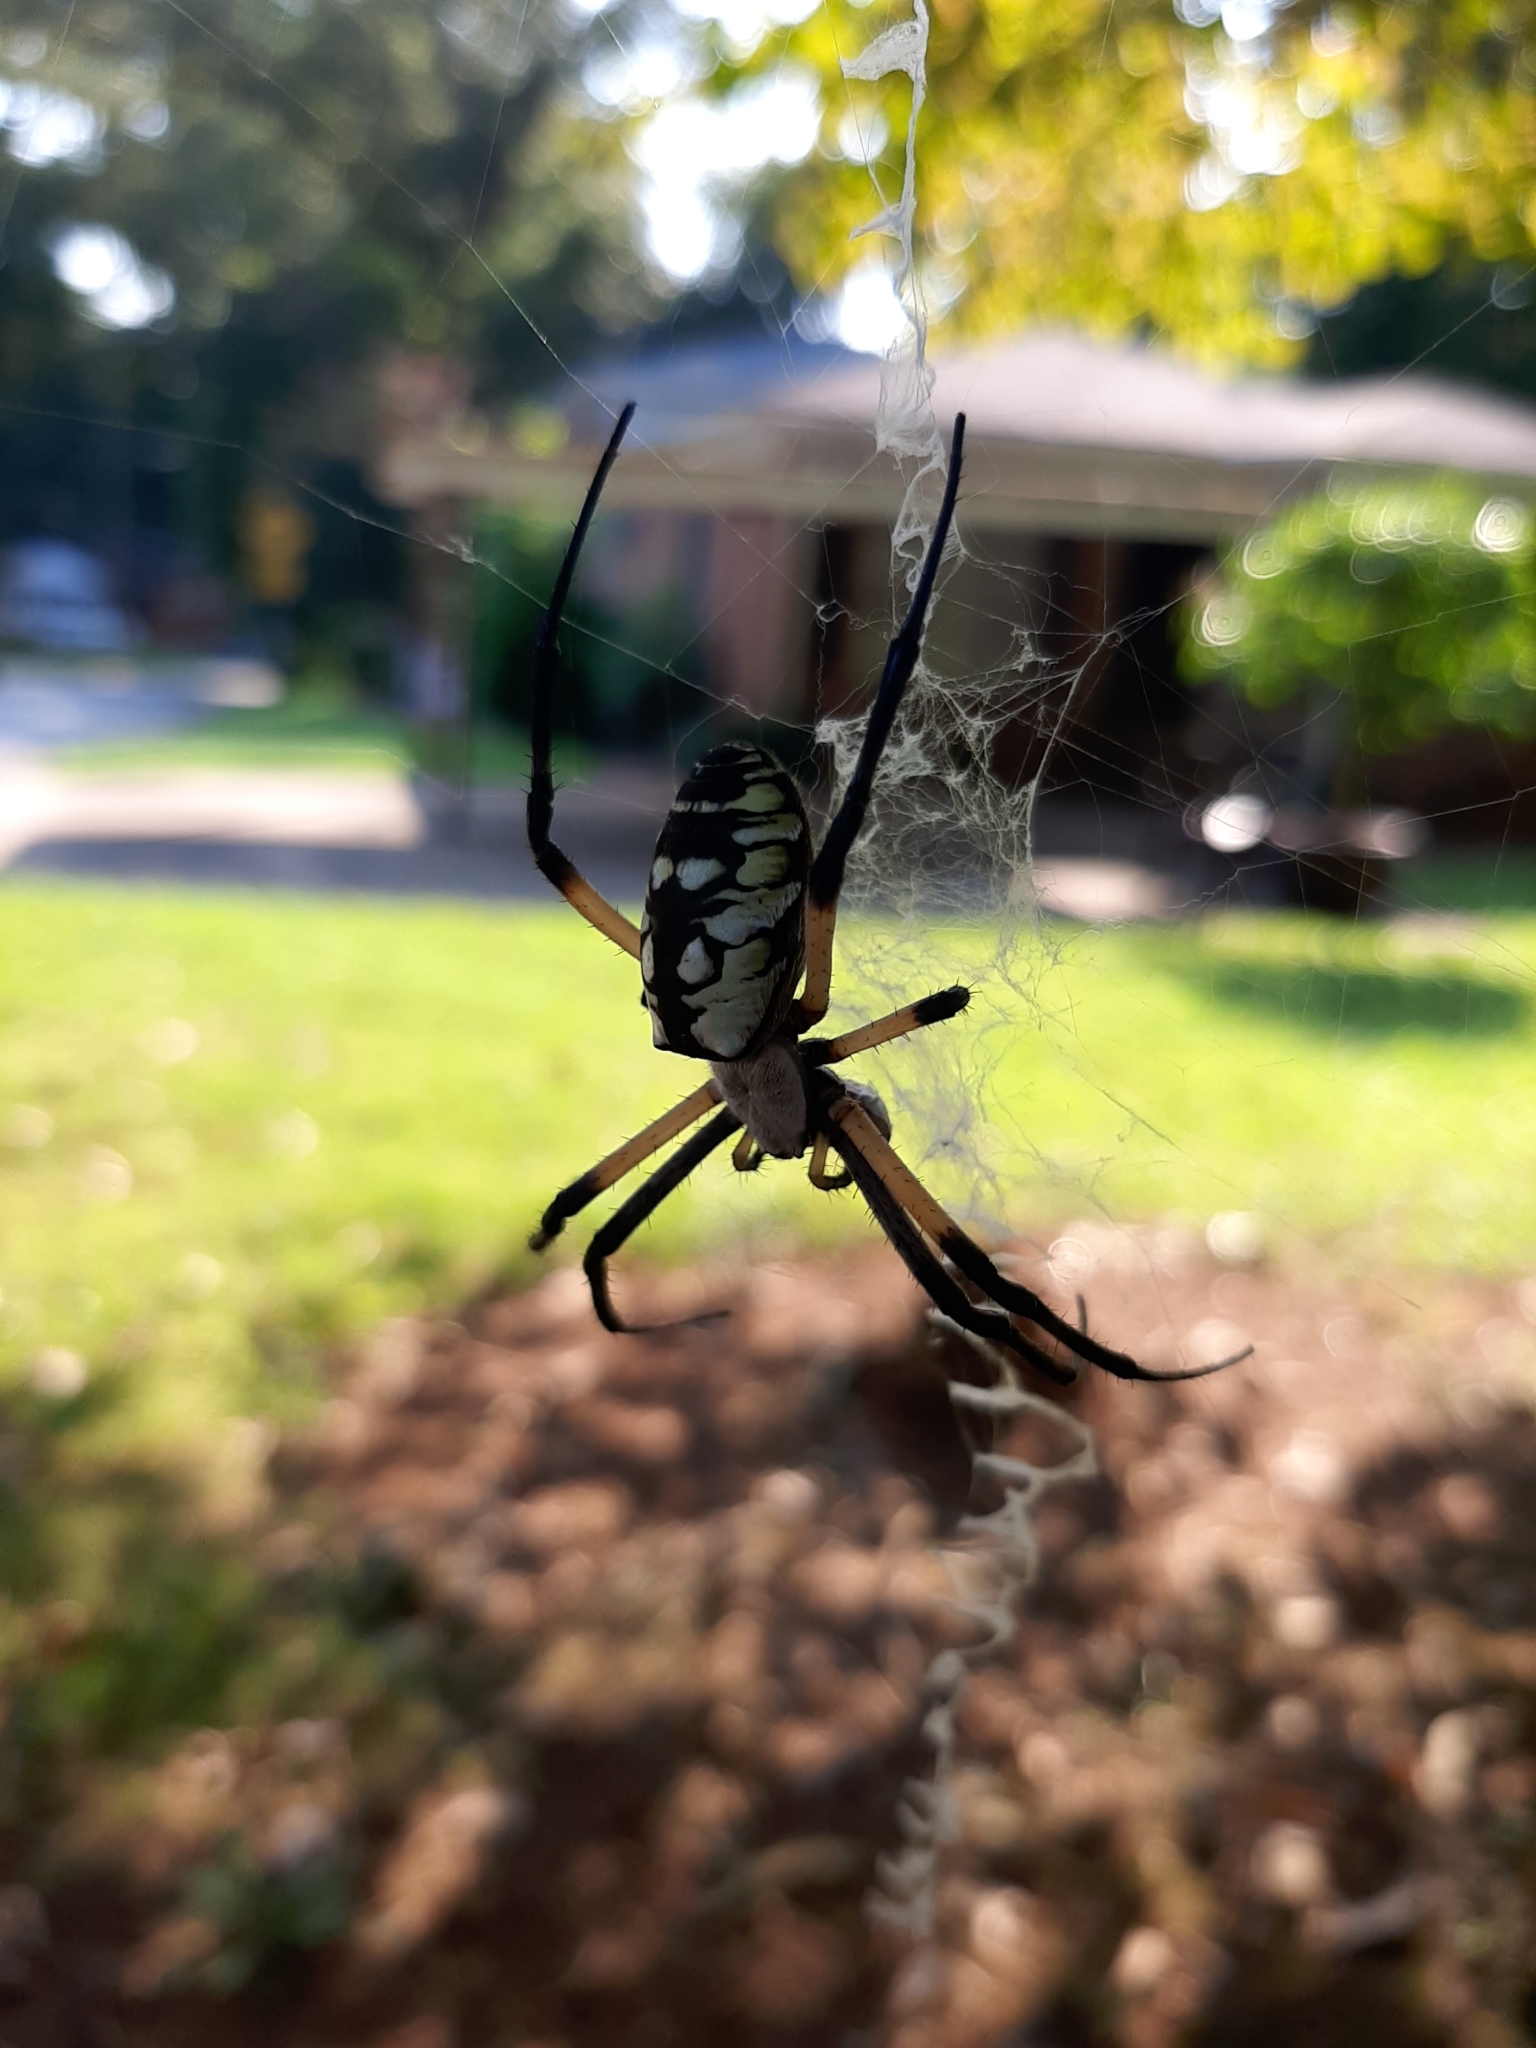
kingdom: Animalia
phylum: Arthropoda
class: Arachnida
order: Araneae
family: Araneidae
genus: Argiope
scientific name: Argiope aurantia
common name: Orb weavers
